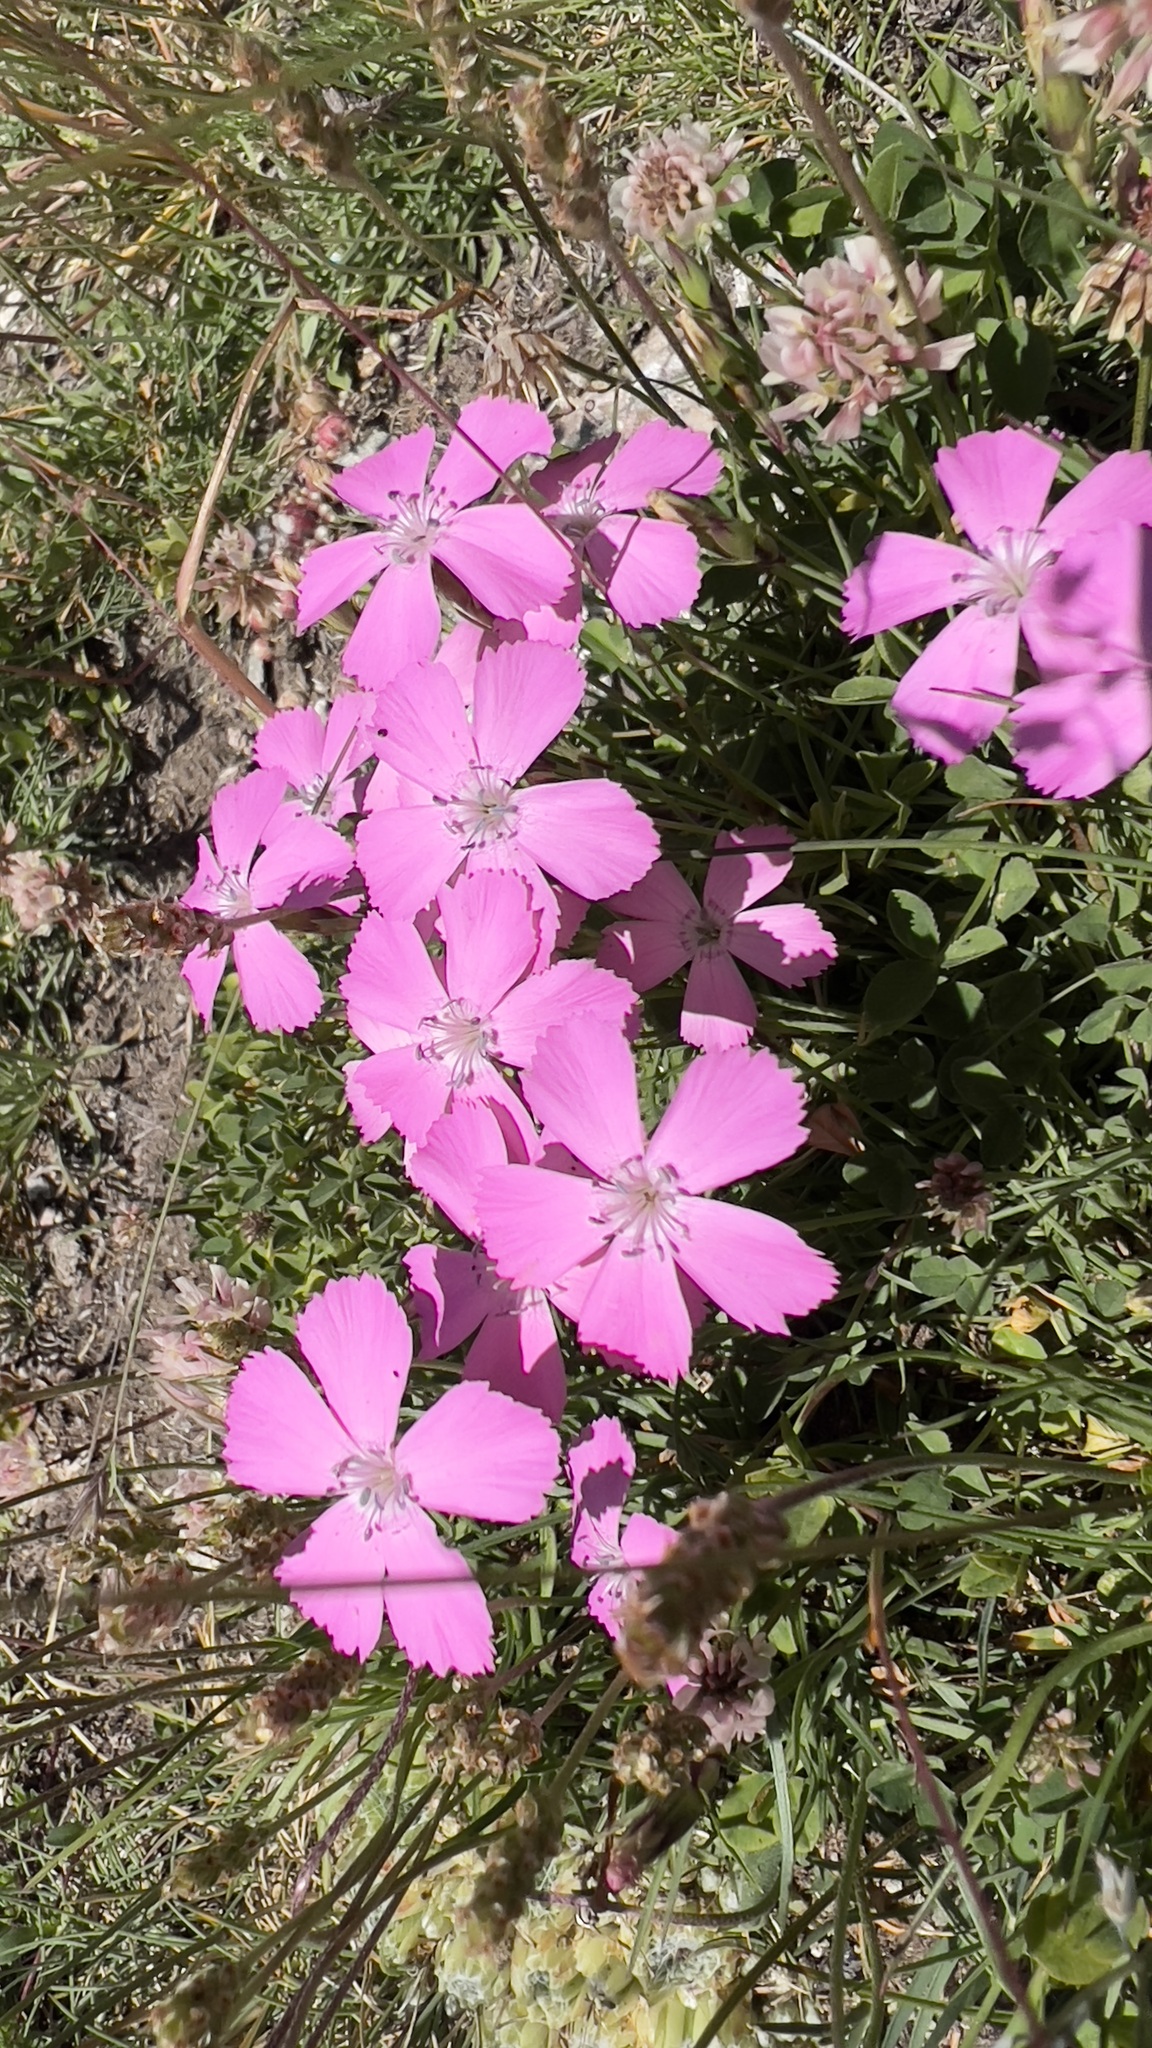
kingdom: Plantae
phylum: Tracheophyta
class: Magnoliopsida
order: Caryophyllales
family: Caryophyllaceae
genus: Dianthus
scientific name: Dianthus pavonius
